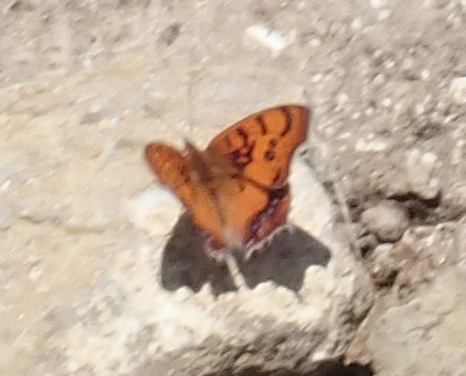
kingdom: Animalia
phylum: Arthropoda
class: Insecta
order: Lepidoptera
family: Nymphalidae
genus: Catacroptera
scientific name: Catacroptera cloanthe
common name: Pirate
